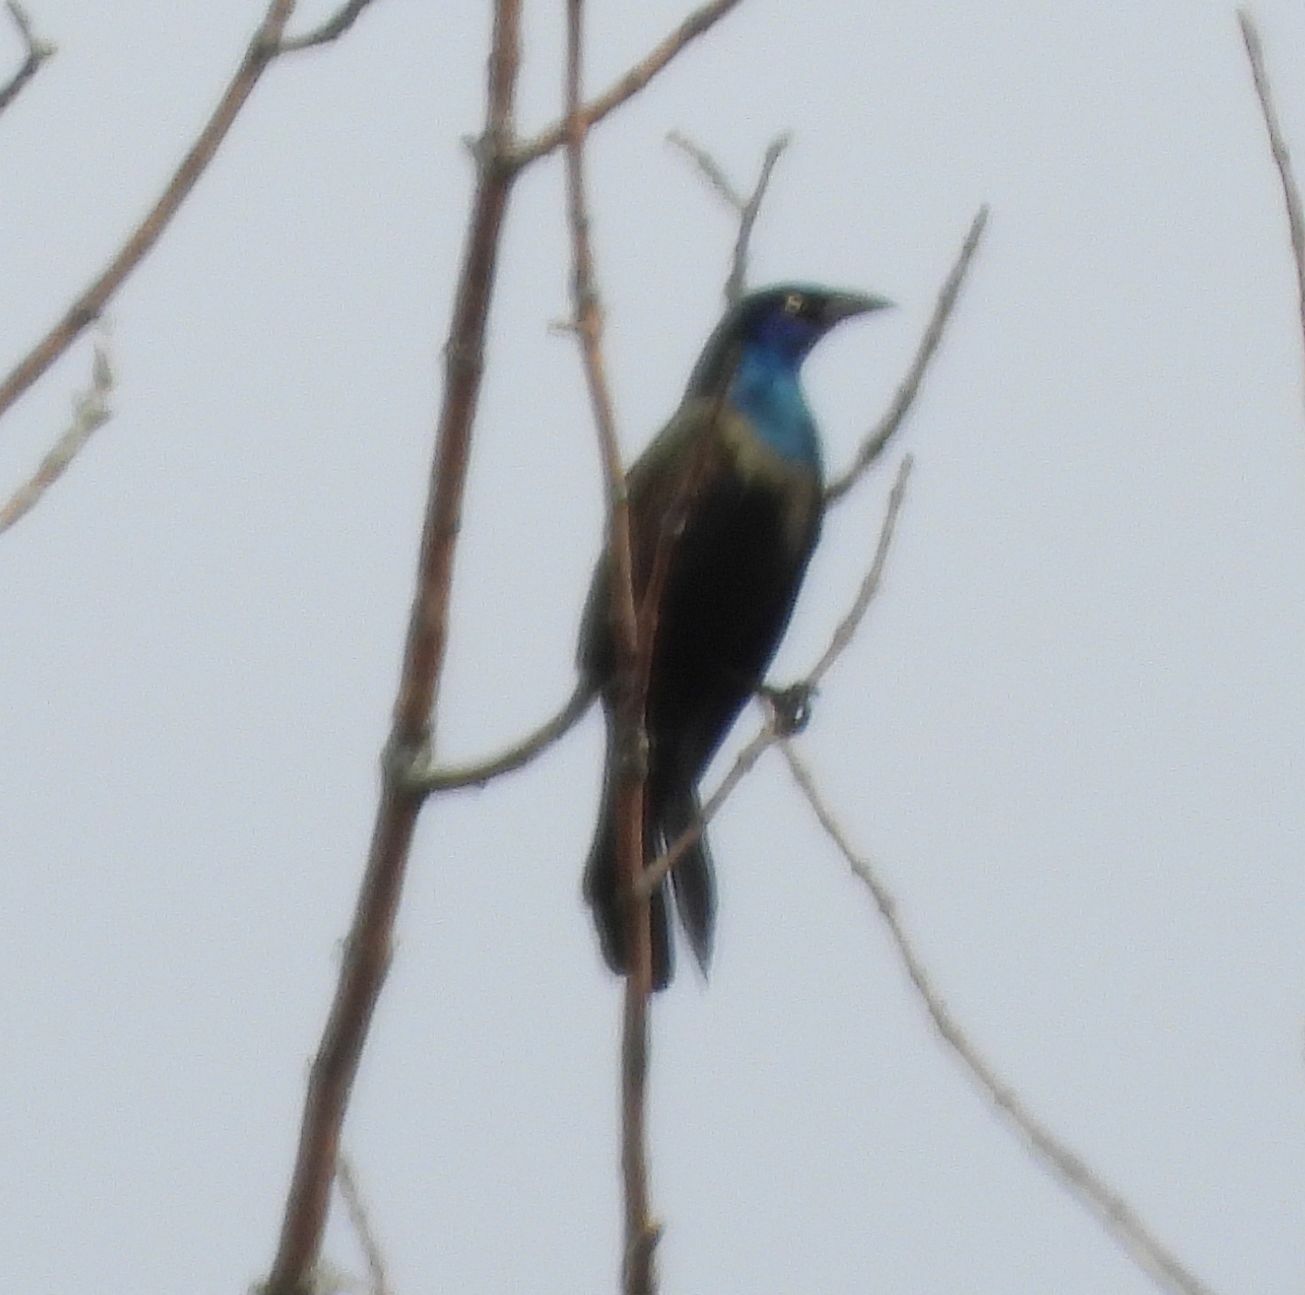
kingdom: Animalia
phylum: Chordata
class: Aves
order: Passeriformes
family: Icteridae
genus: Quiscalus
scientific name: Quiscalus quiscula
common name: Common grackle
